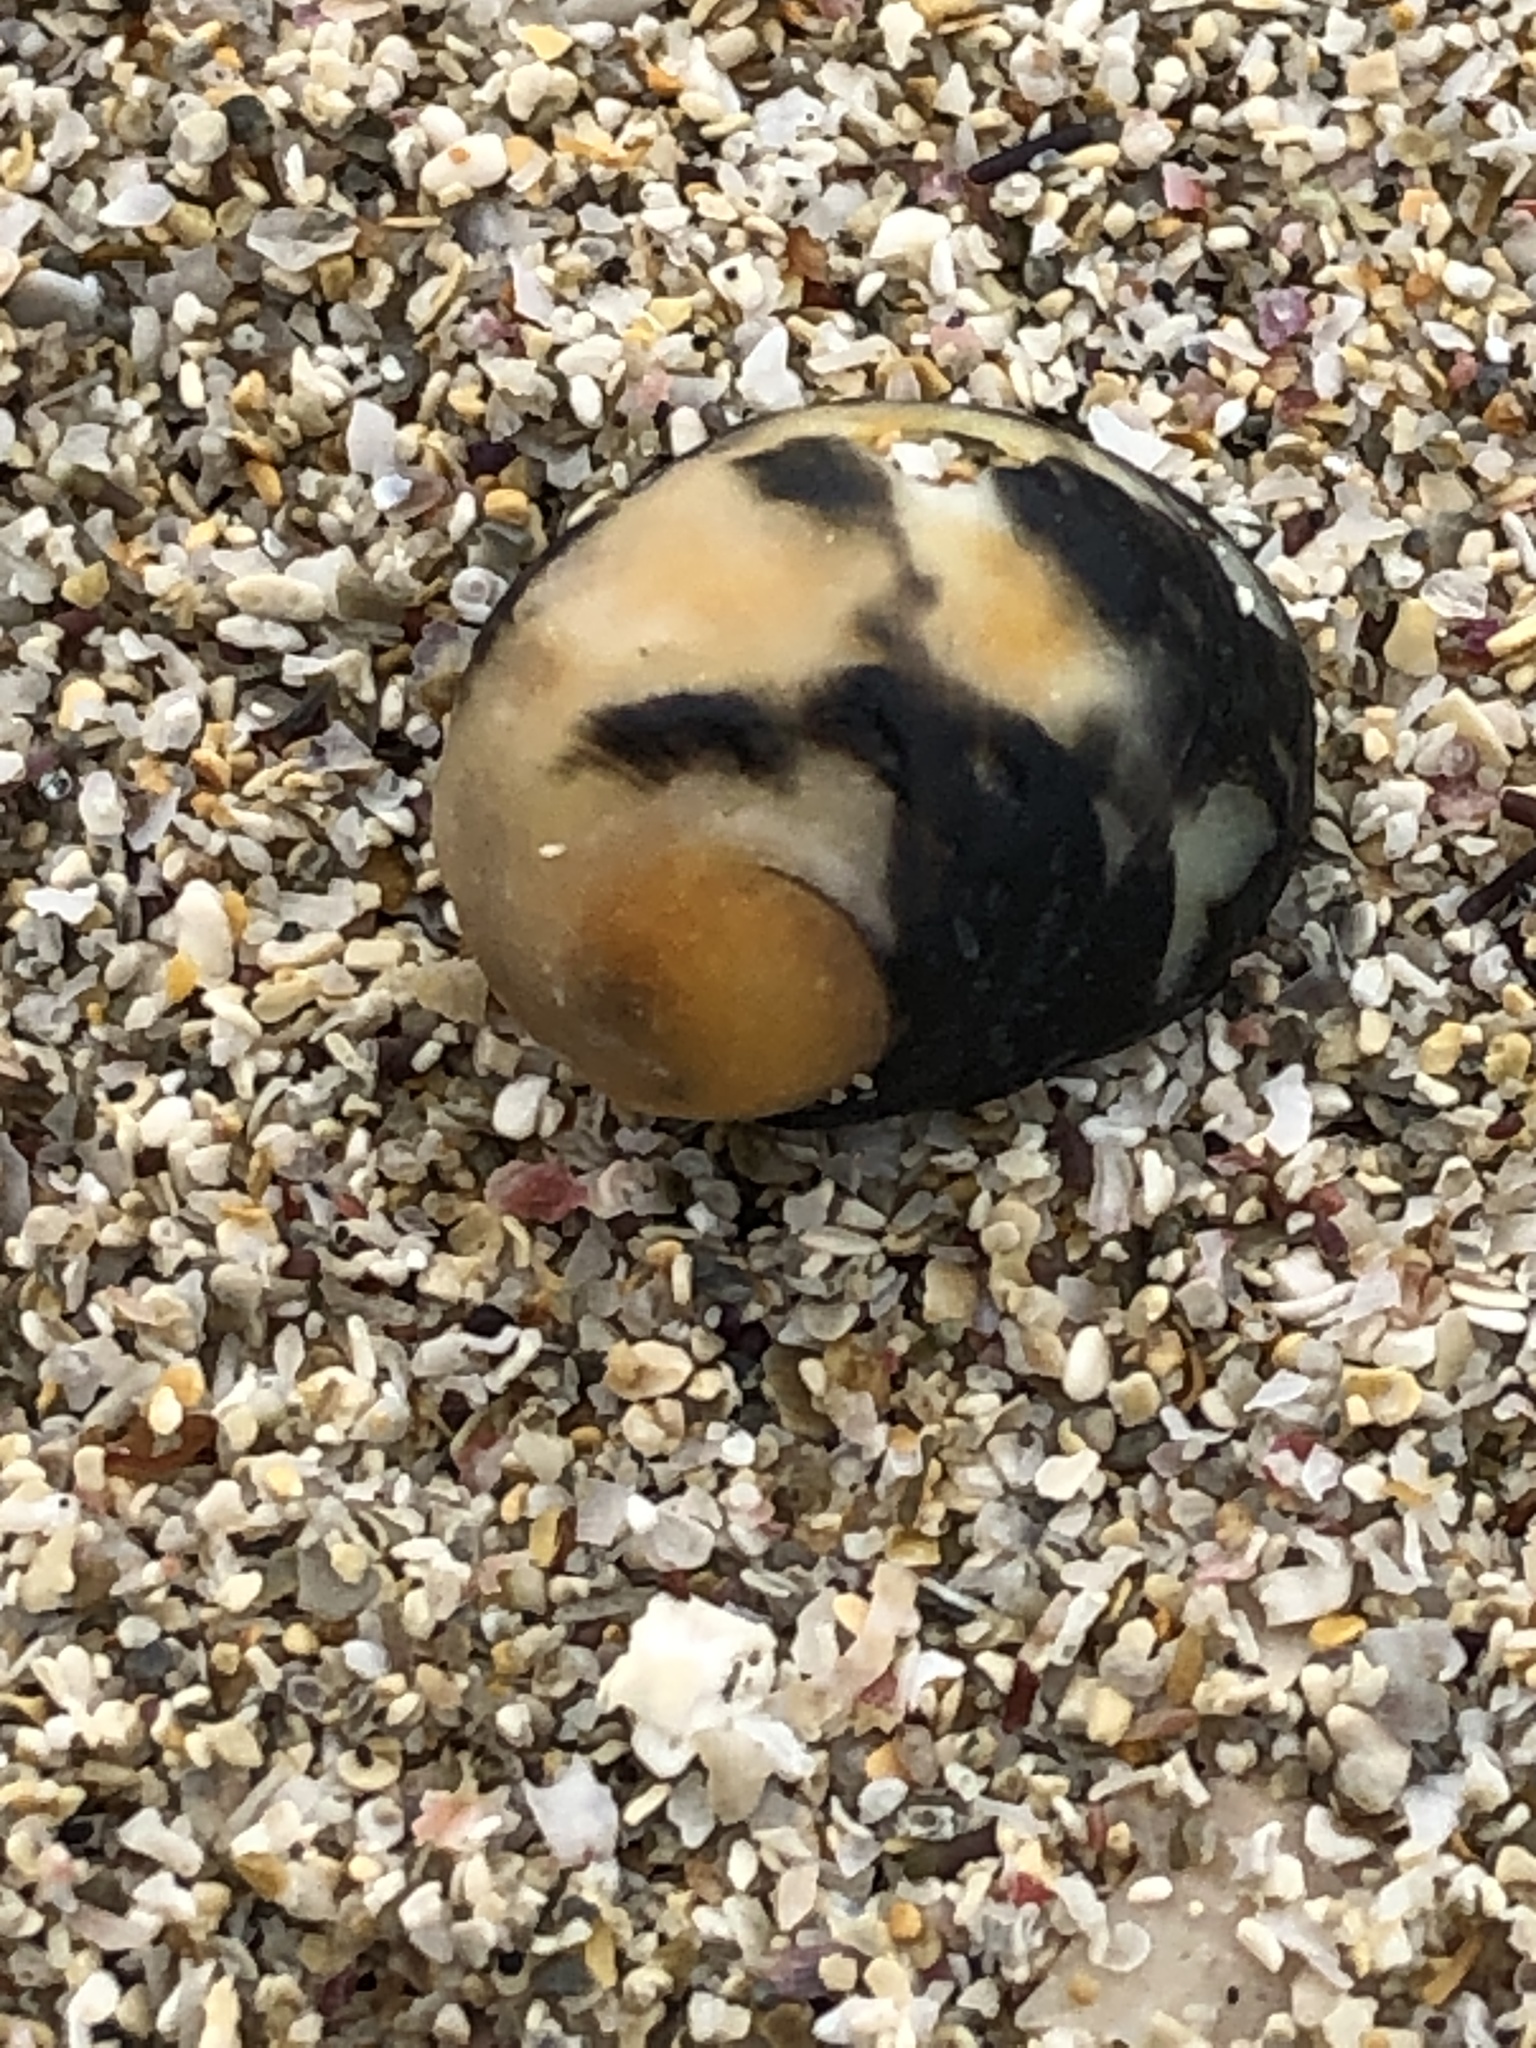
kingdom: Animalia
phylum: Mollusca
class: Gastropoda
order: Cycloneritida
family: Neritidae
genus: Nerita
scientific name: Nerita japonica
